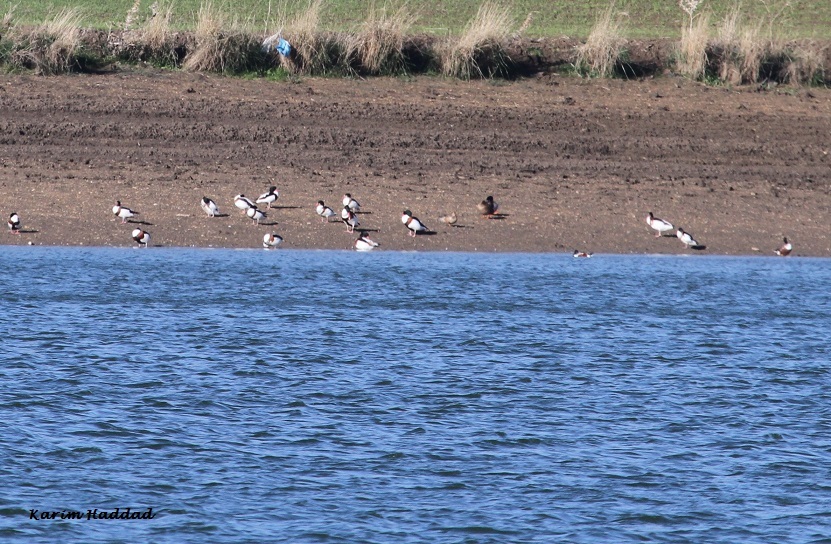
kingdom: Animalia
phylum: Chordata
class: Aves
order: Anseriformes
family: Anatidae
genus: Tadorna
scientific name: Tadorna tadorna
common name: Common shelduck
